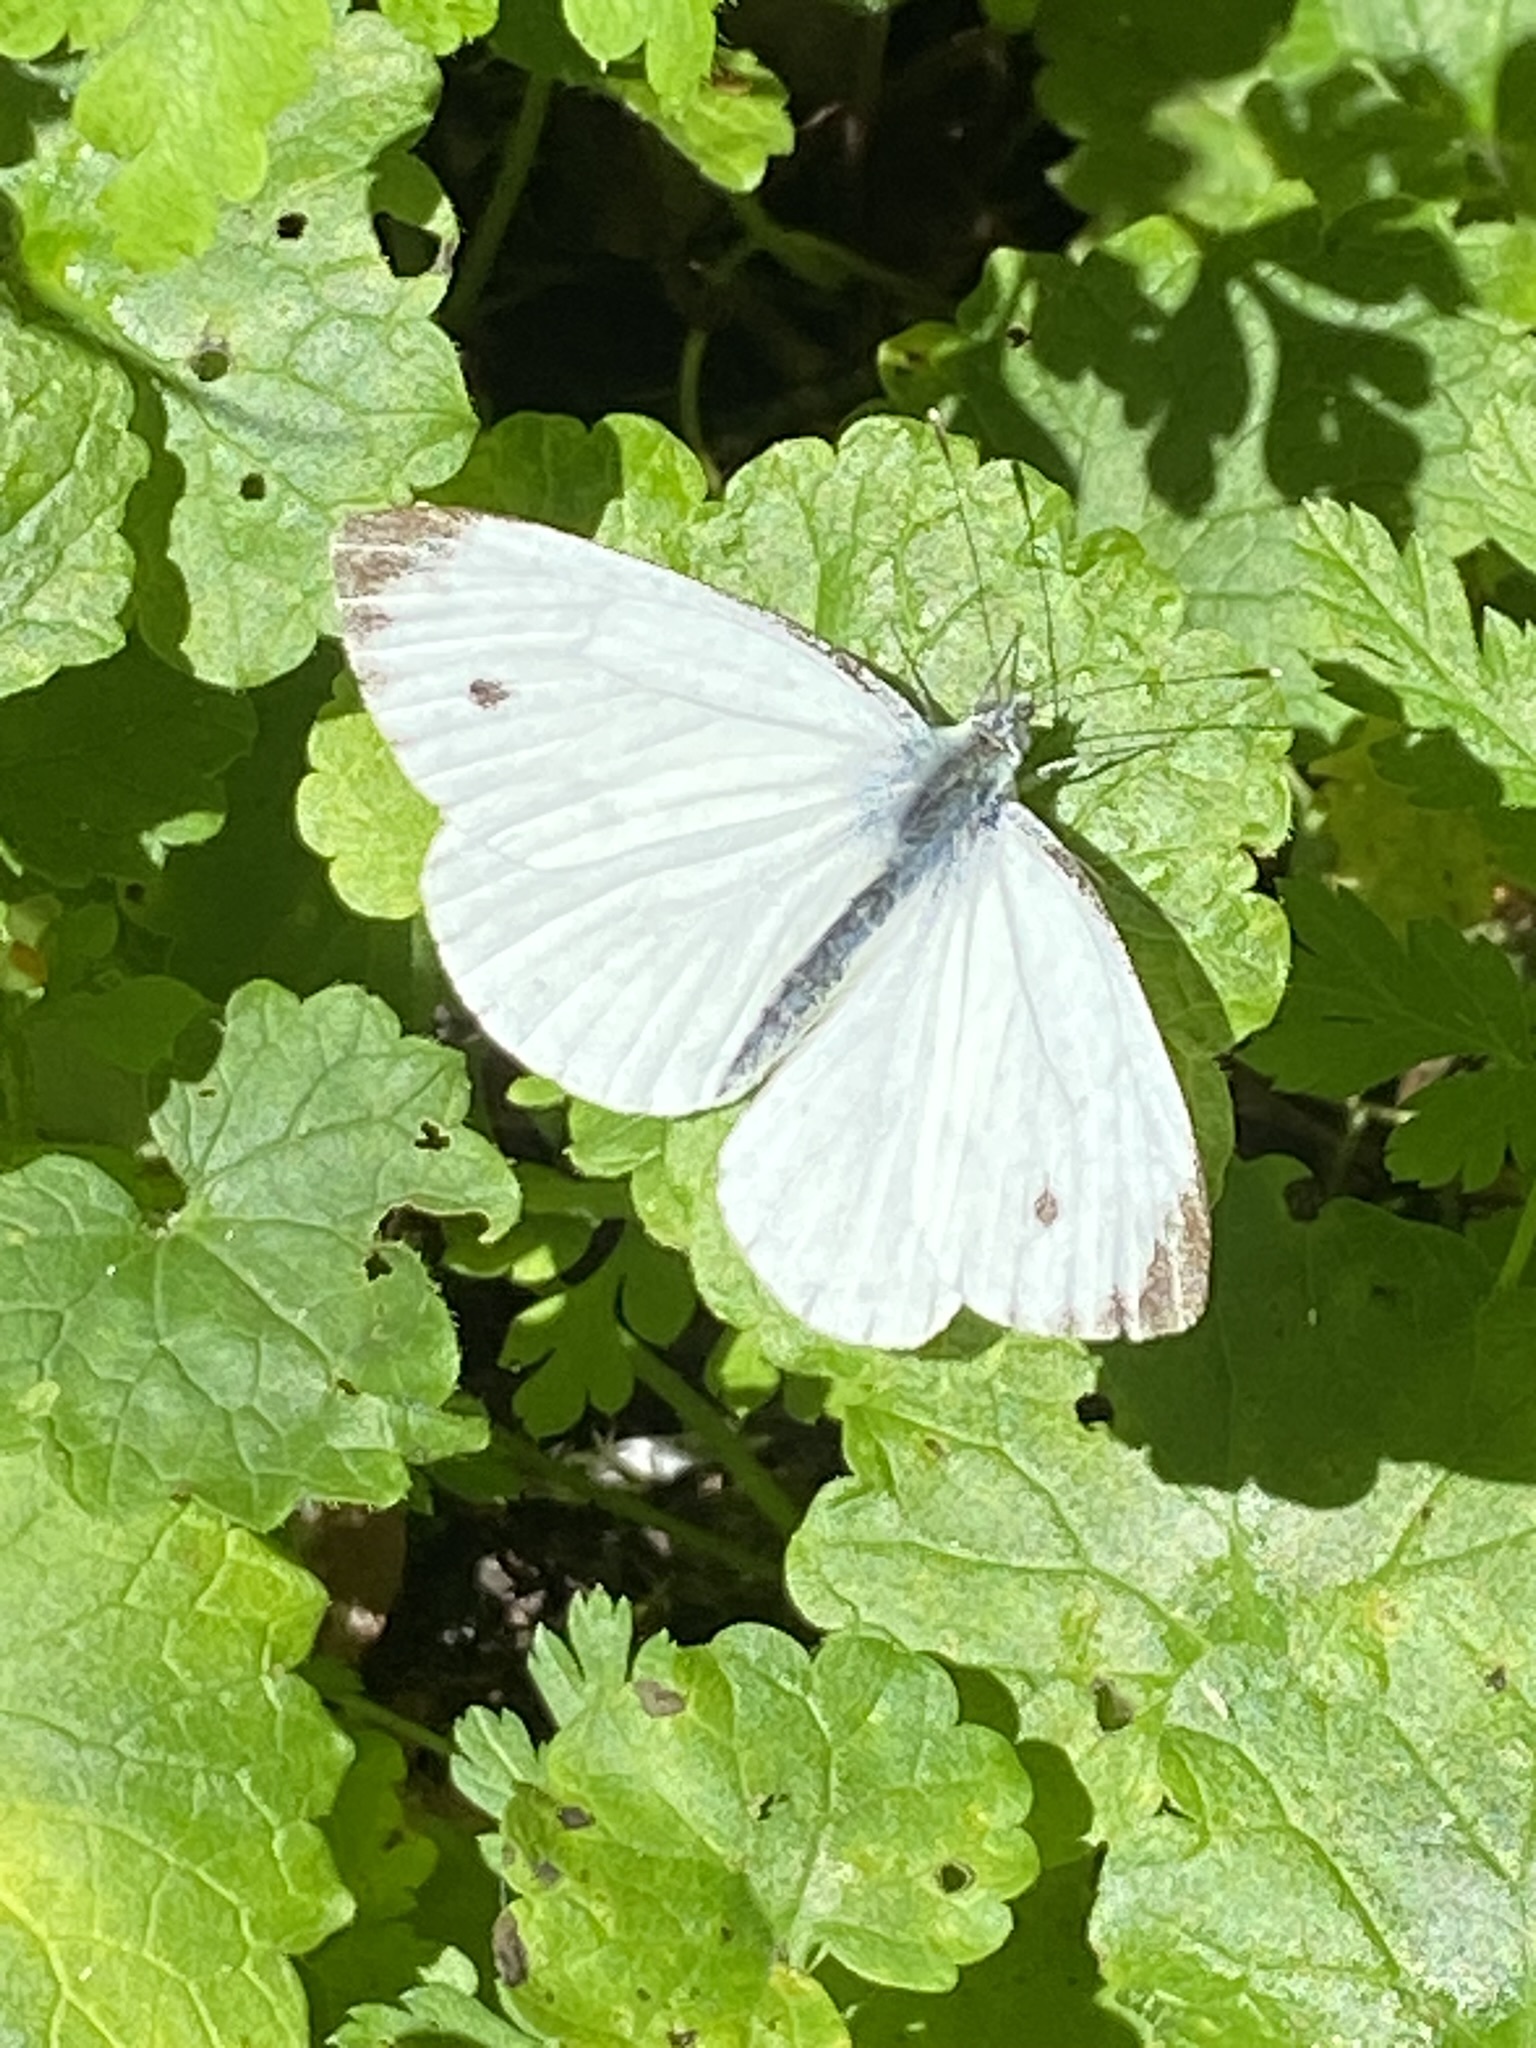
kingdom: Animalia
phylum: Arthropoda
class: Insecta
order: Lepidoptera
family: Pieridae
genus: Pieris
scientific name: Pieris napi
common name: Green-veined white
